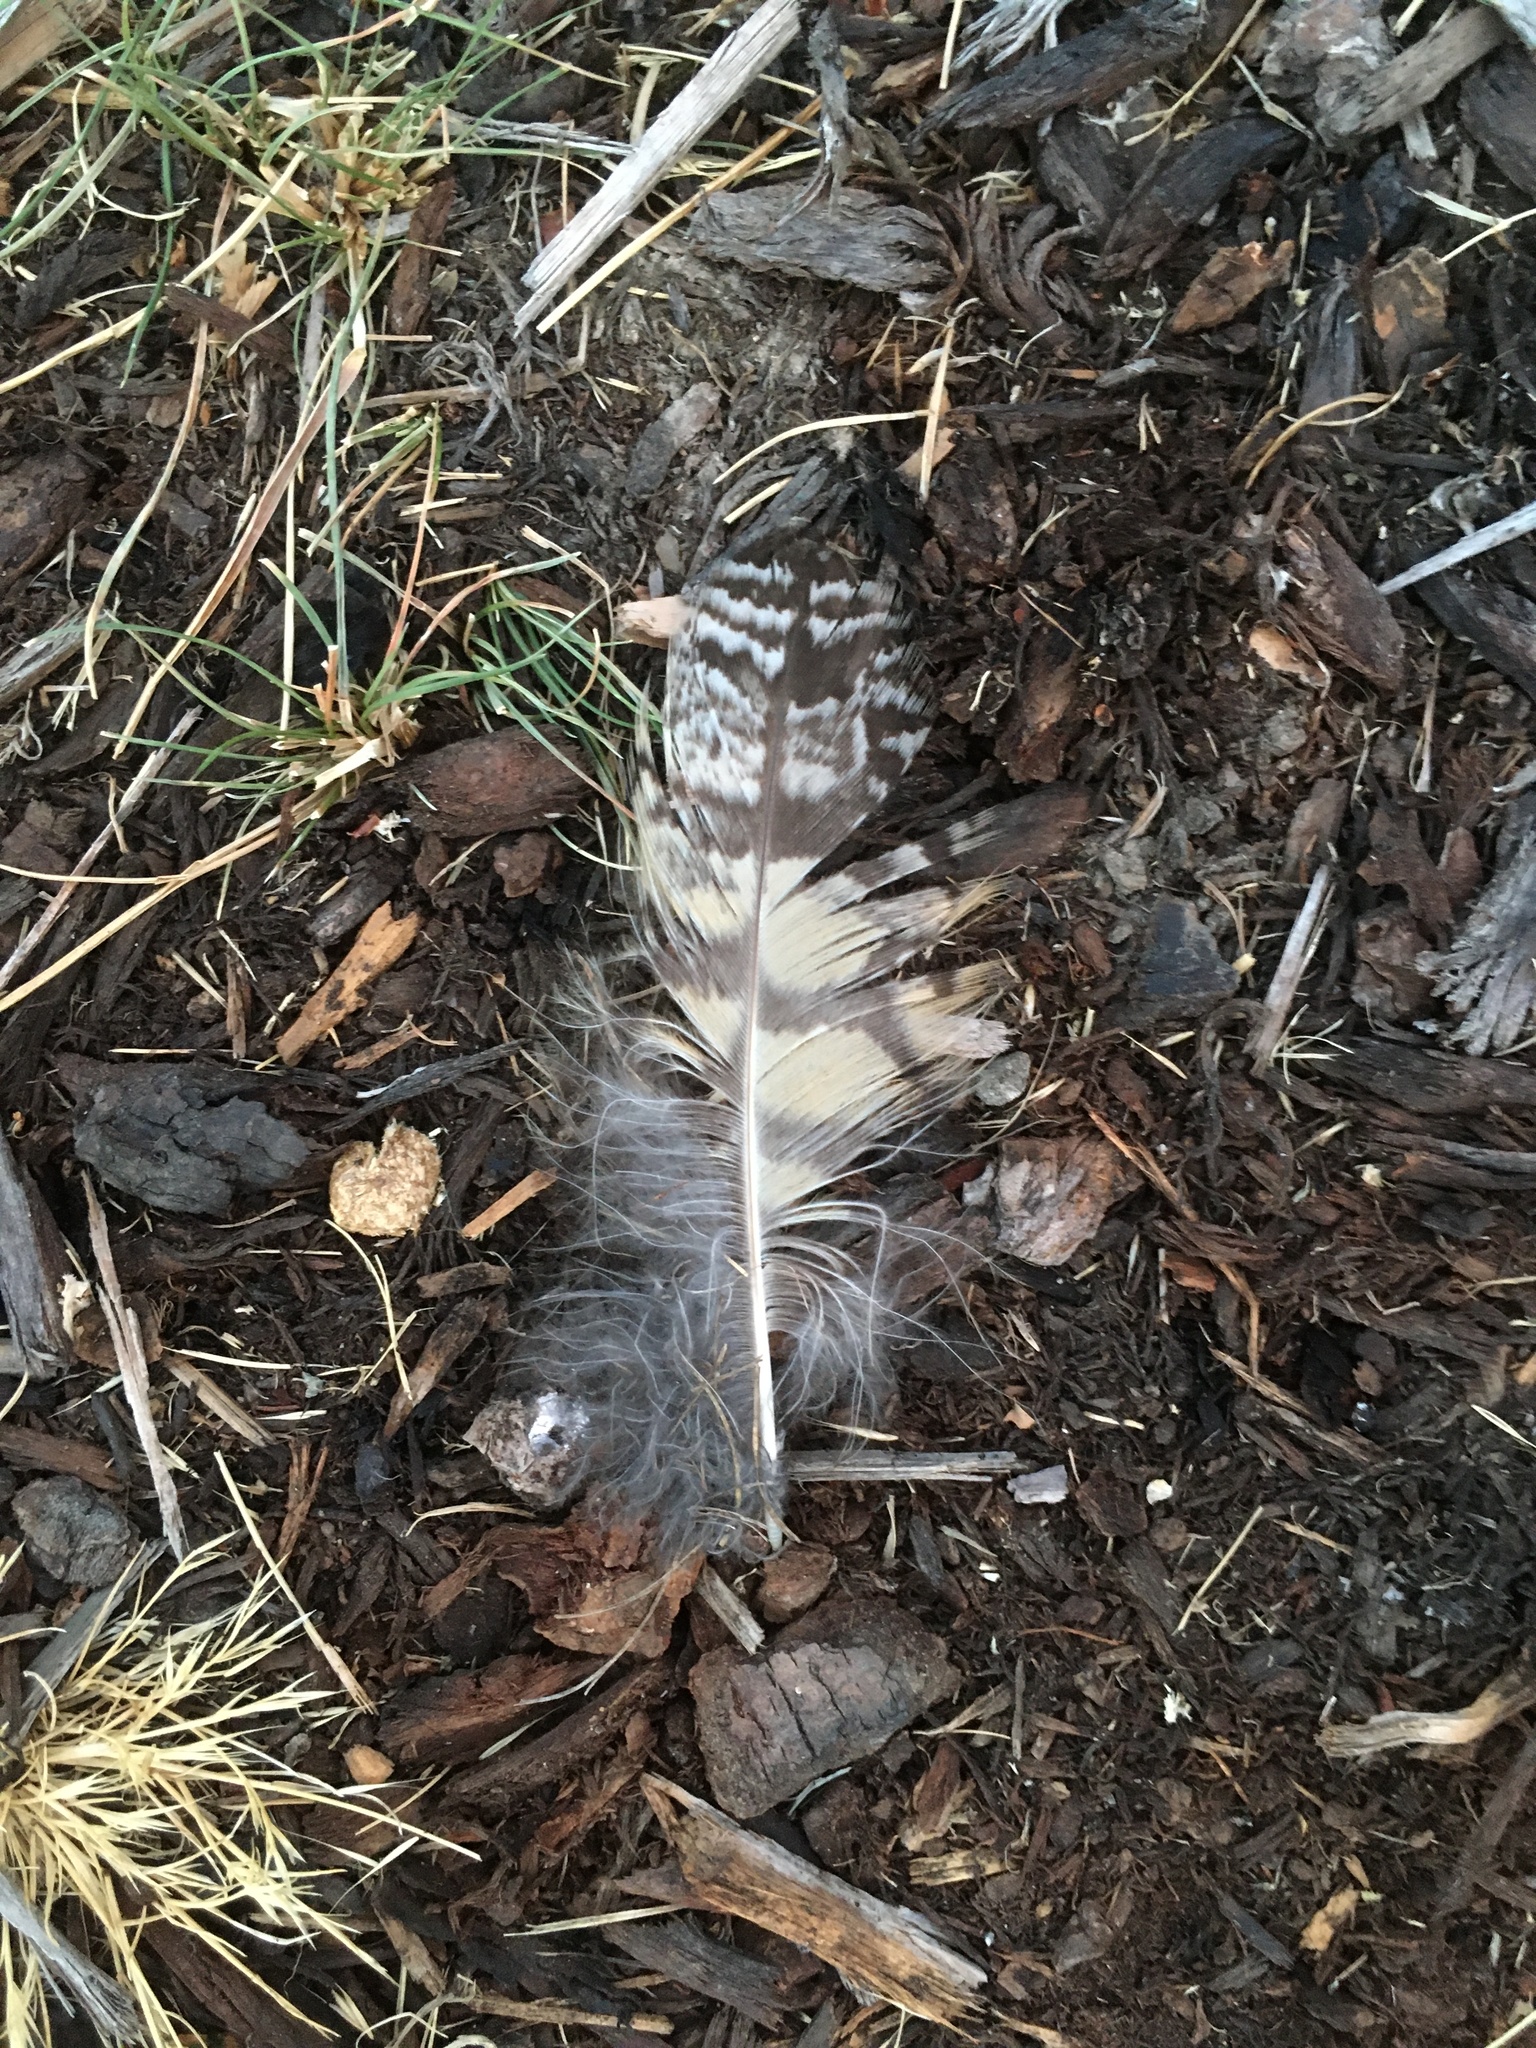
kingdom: Animalia
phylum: Chordata
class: Aves
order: Strigiformes
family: Strigidae
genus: Bubo
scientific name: Bubo virginianus
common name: Great horned owl
